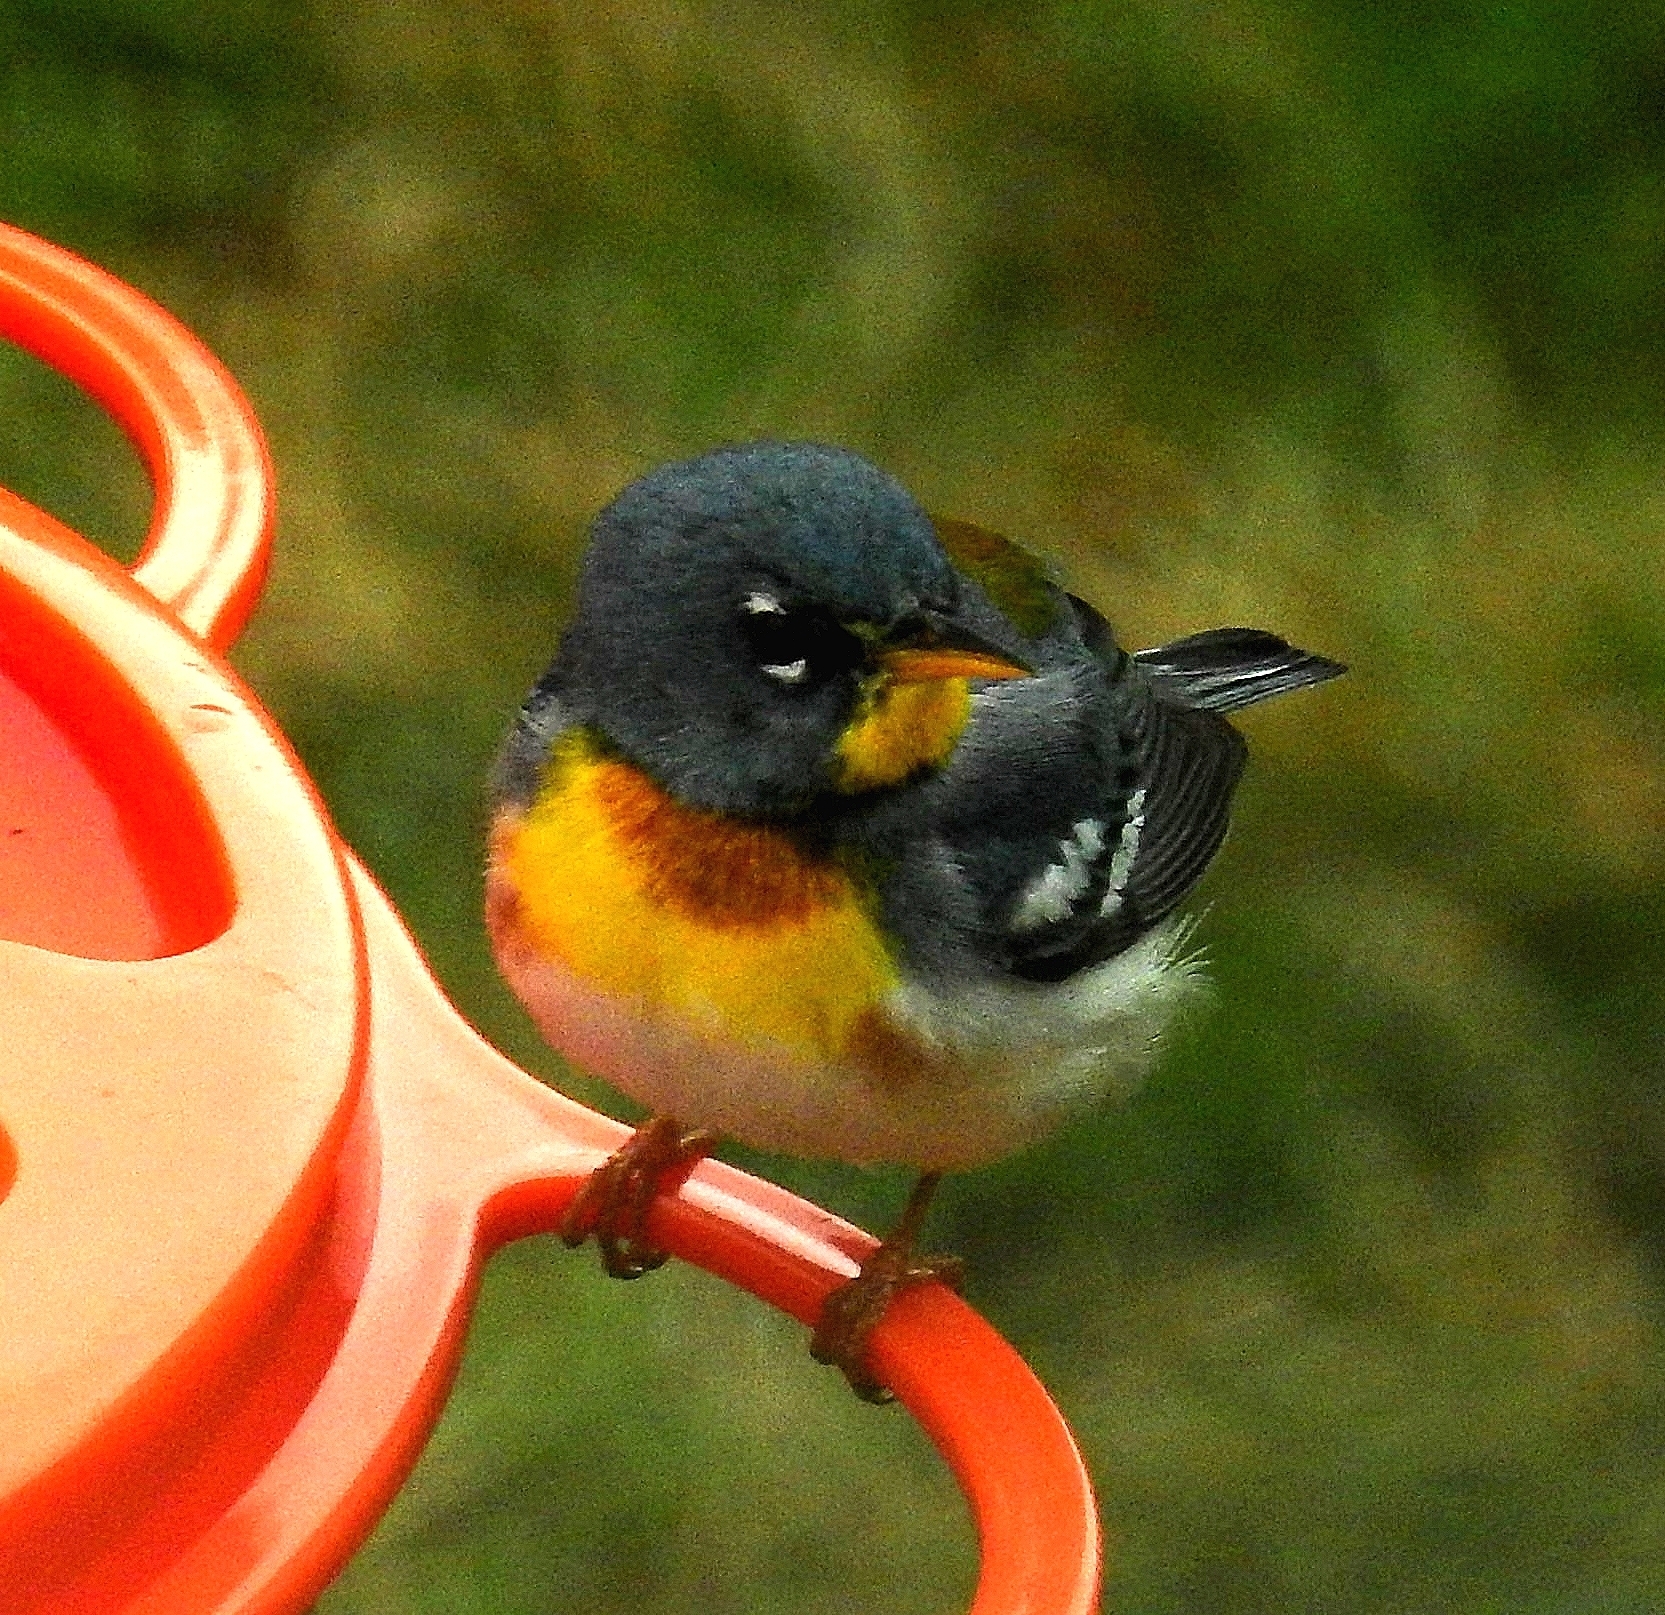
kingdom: Animalia
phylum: Chordata
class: Aves
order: Passeriformes
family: Parulidae
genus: Setophaga
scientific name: Setophaga americana
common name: Northern parula
